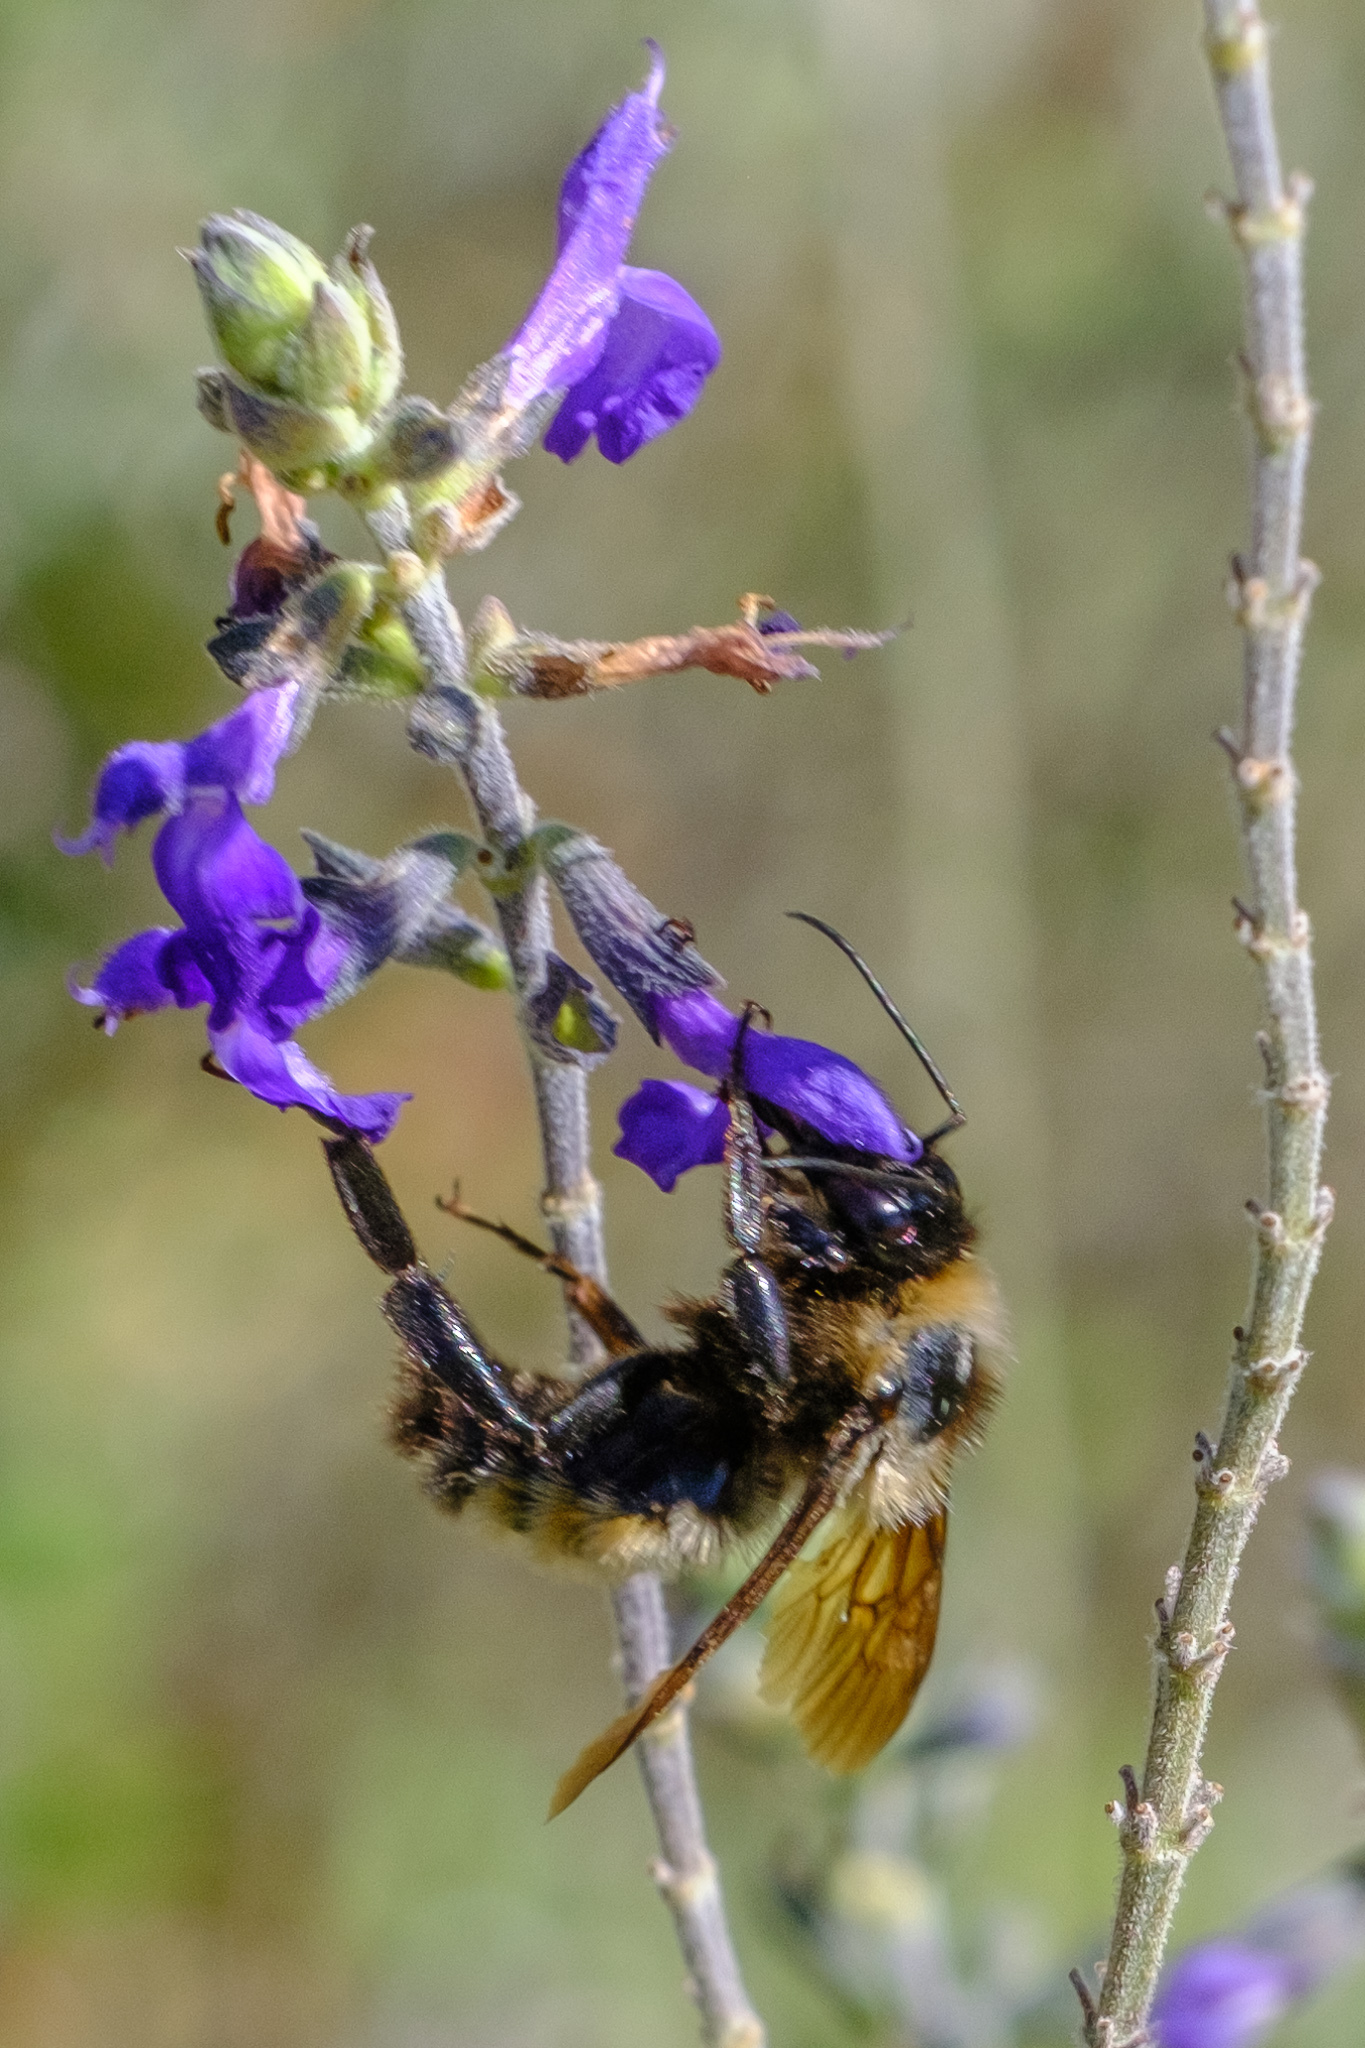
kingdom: Animalia
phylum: Arthropoda
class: Insecta
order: Hymenoptera
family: Apidae
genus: Bombus
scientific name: Bombus sonorus
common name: Sonoran bumble bee
